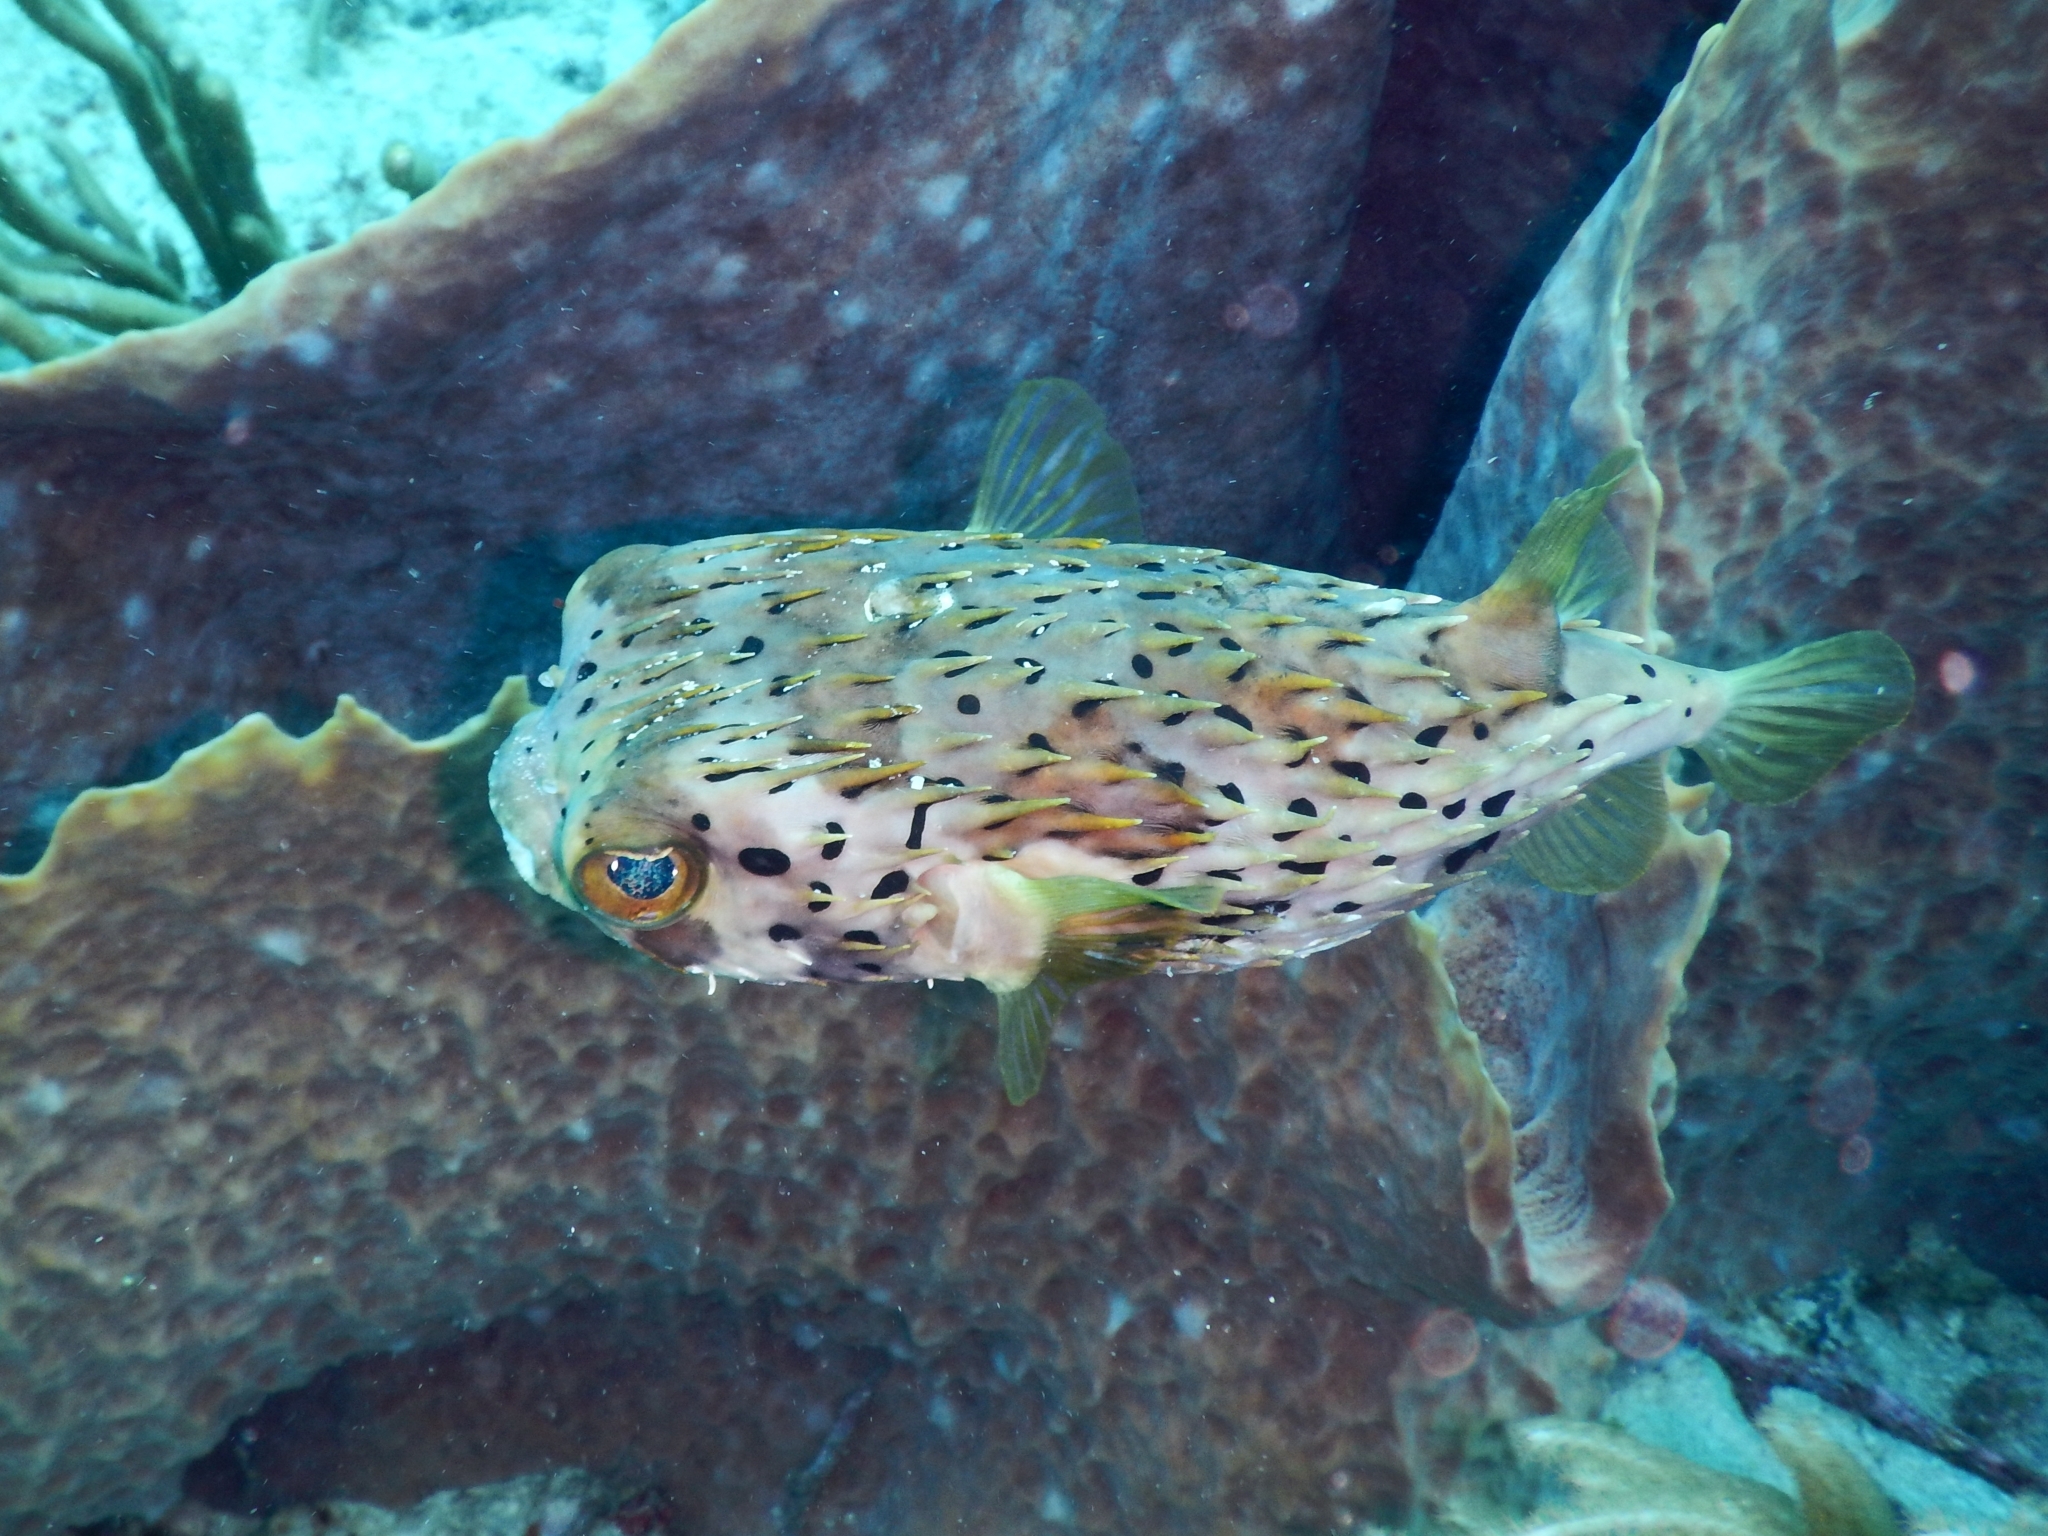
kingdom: Animalia
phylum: Chordata
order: Tetraodontiformes
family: Diodontidae
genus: Diodon
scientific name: Diodon holocanthus
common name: Balloonfish
